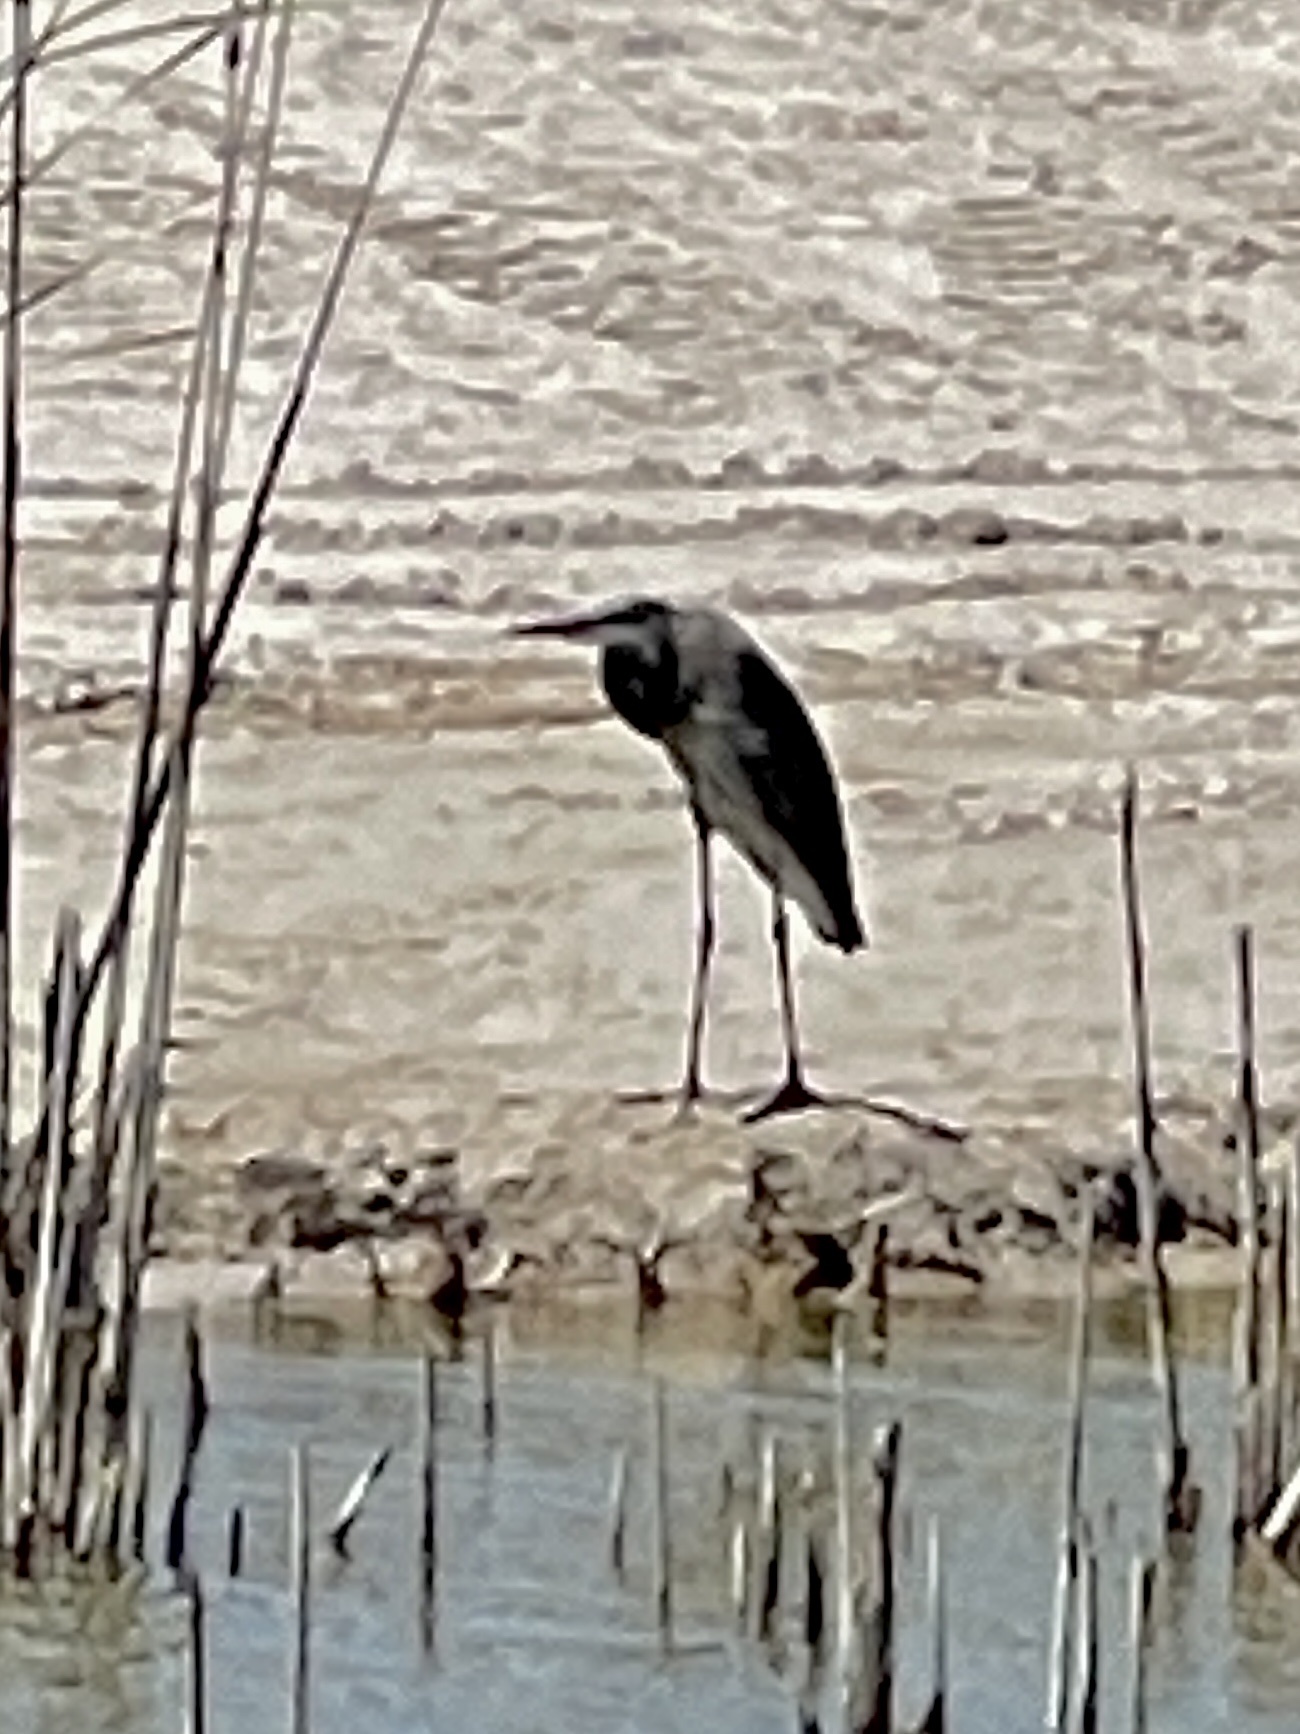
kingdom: Animalia
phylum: Chordata
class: Aves
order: Pelecaniformes
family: Ardeidae
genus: Ardea
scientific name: Ardea herodias
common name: Great blue heron
